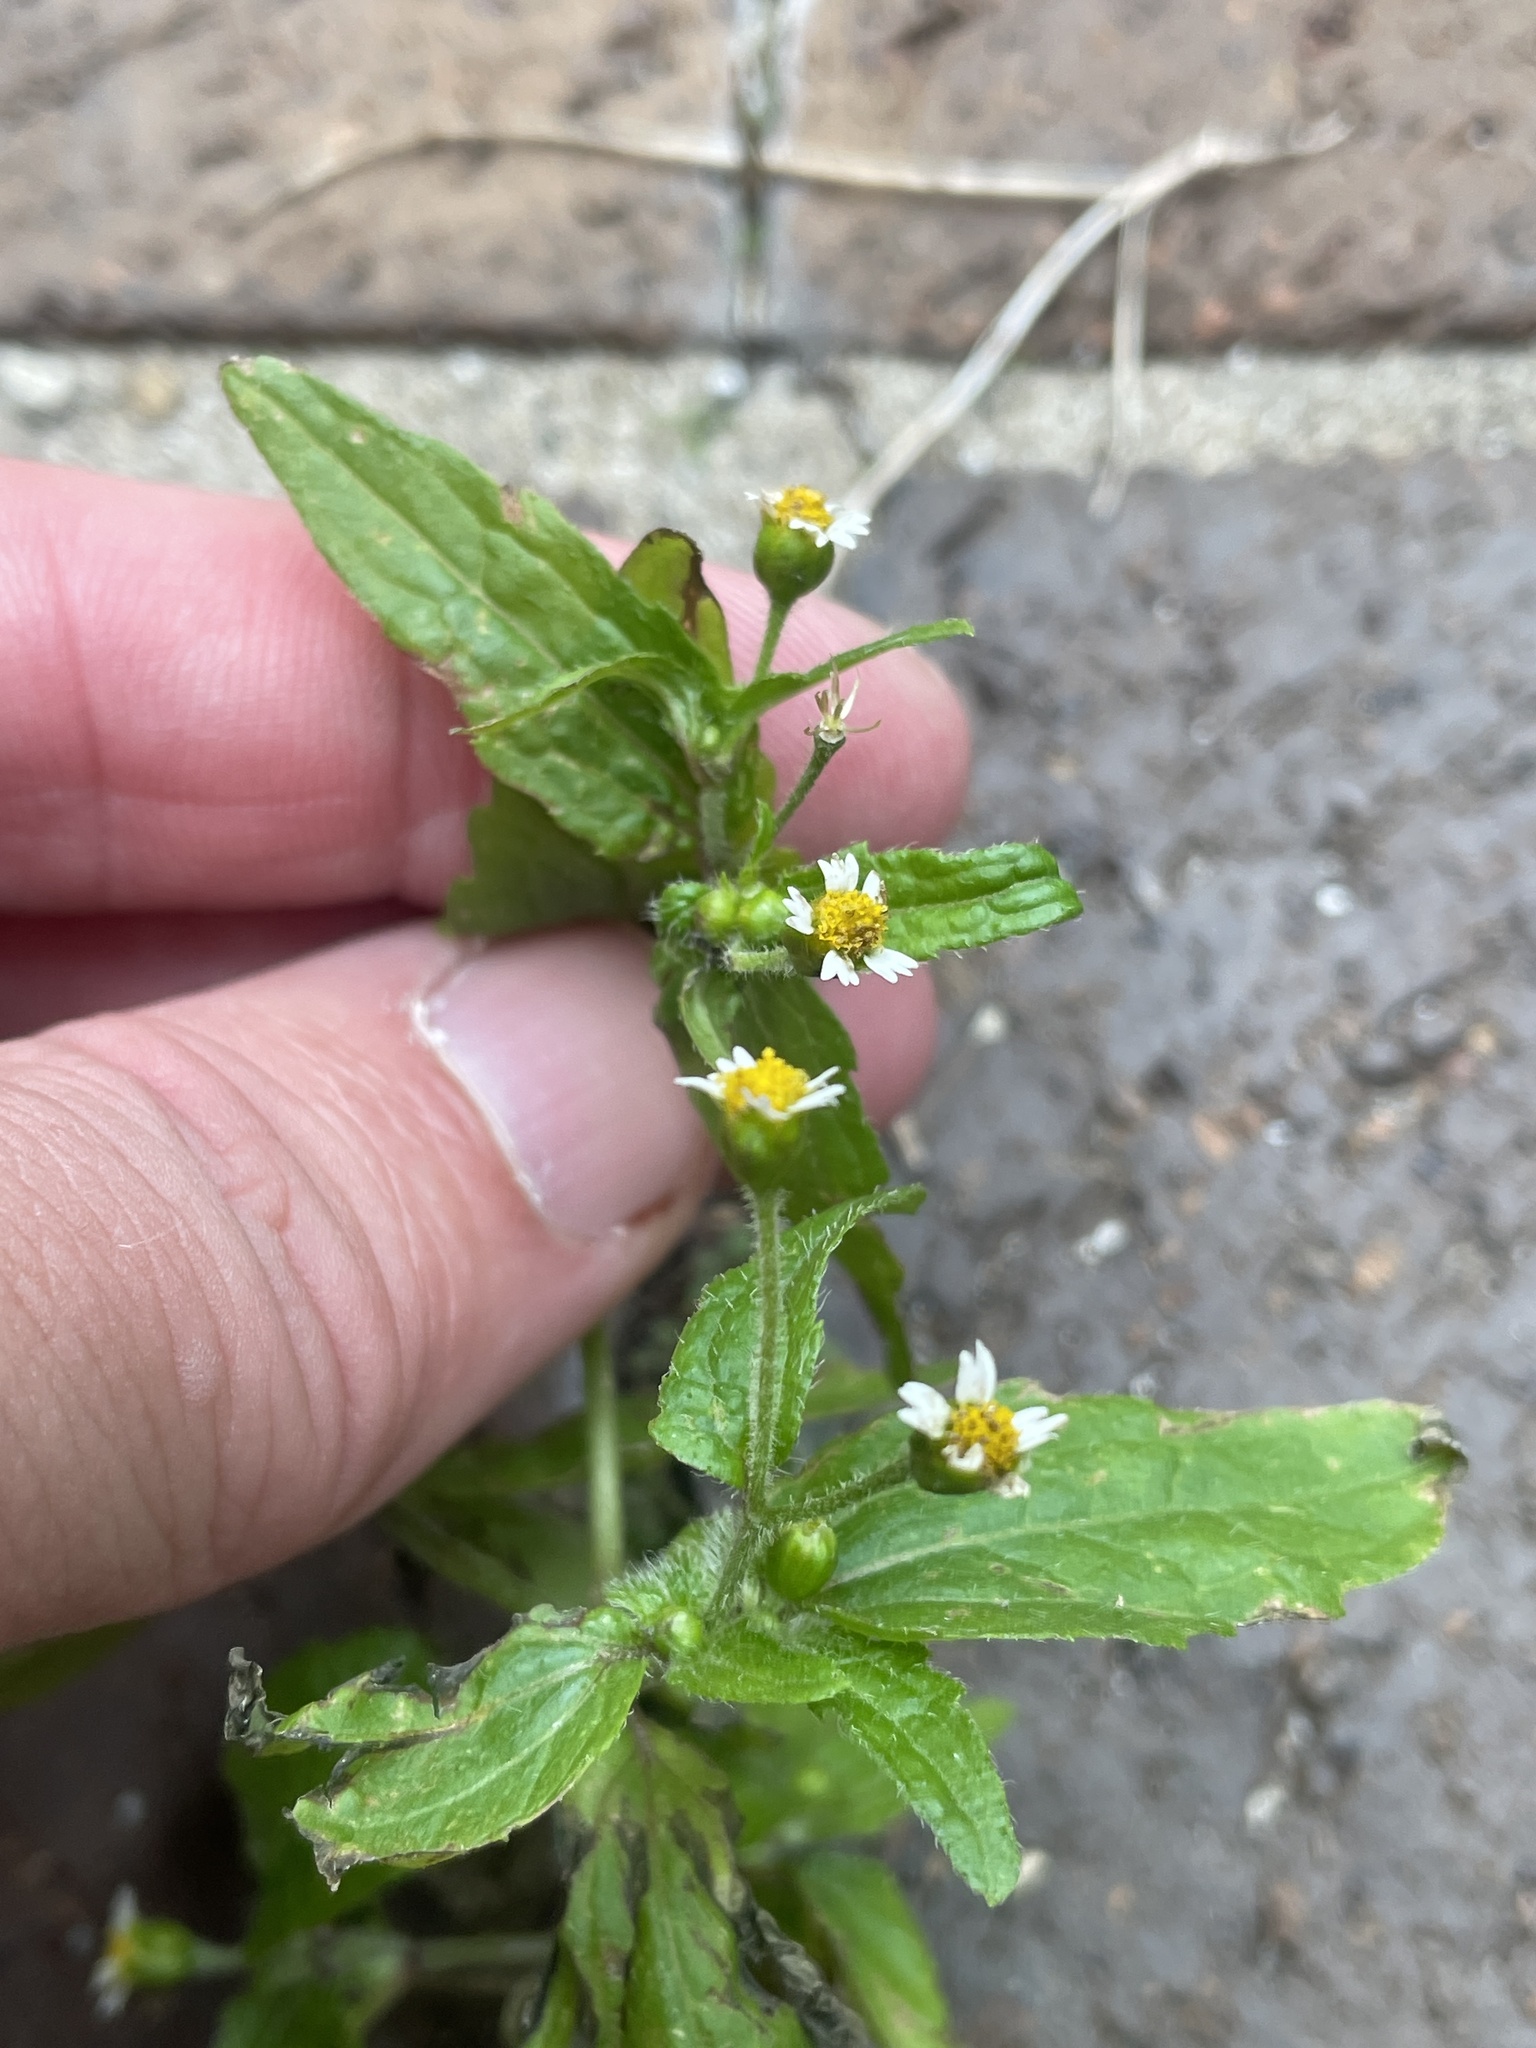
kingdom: Plantae
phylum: Tracheophyta
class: Magnoliopsida
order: Asterales
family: Asteraceae
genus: Galinsoga
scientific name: Galinsoga quadriradiata
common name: Shaggy soldier
